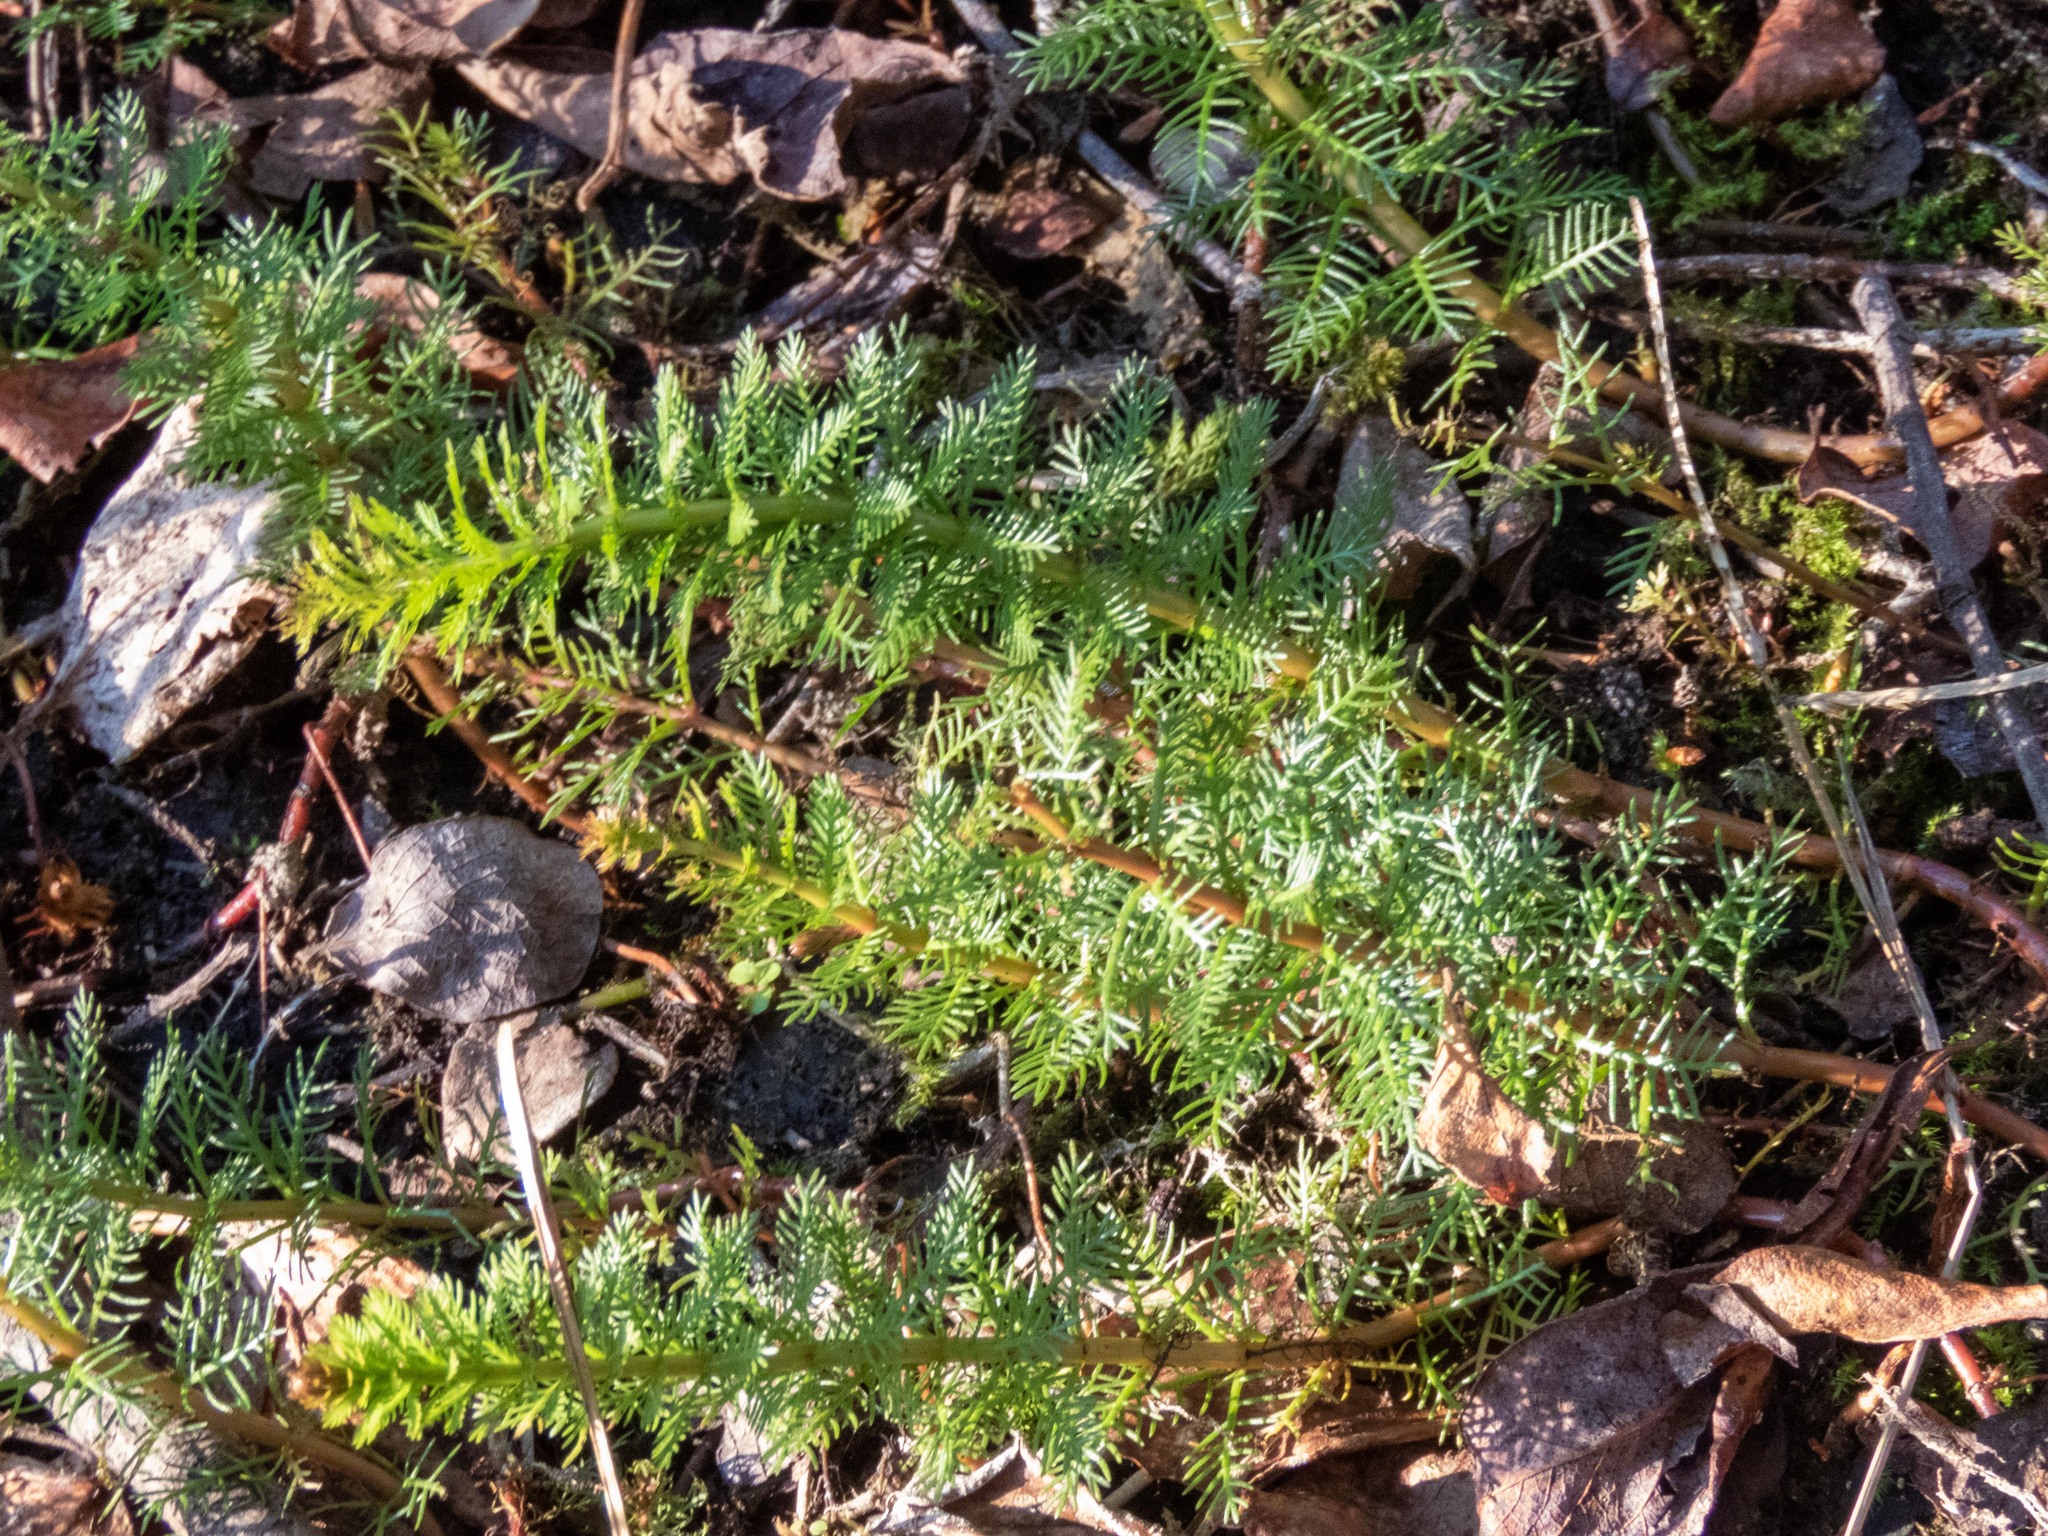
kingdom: Plantae
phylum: Tracheophyta
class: Magnoliopsida
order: Saxifragales
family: Haloragaceae
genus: Myriophyllum
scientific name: Myriophyllum verticillatum
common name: Whorled water-milfoil
